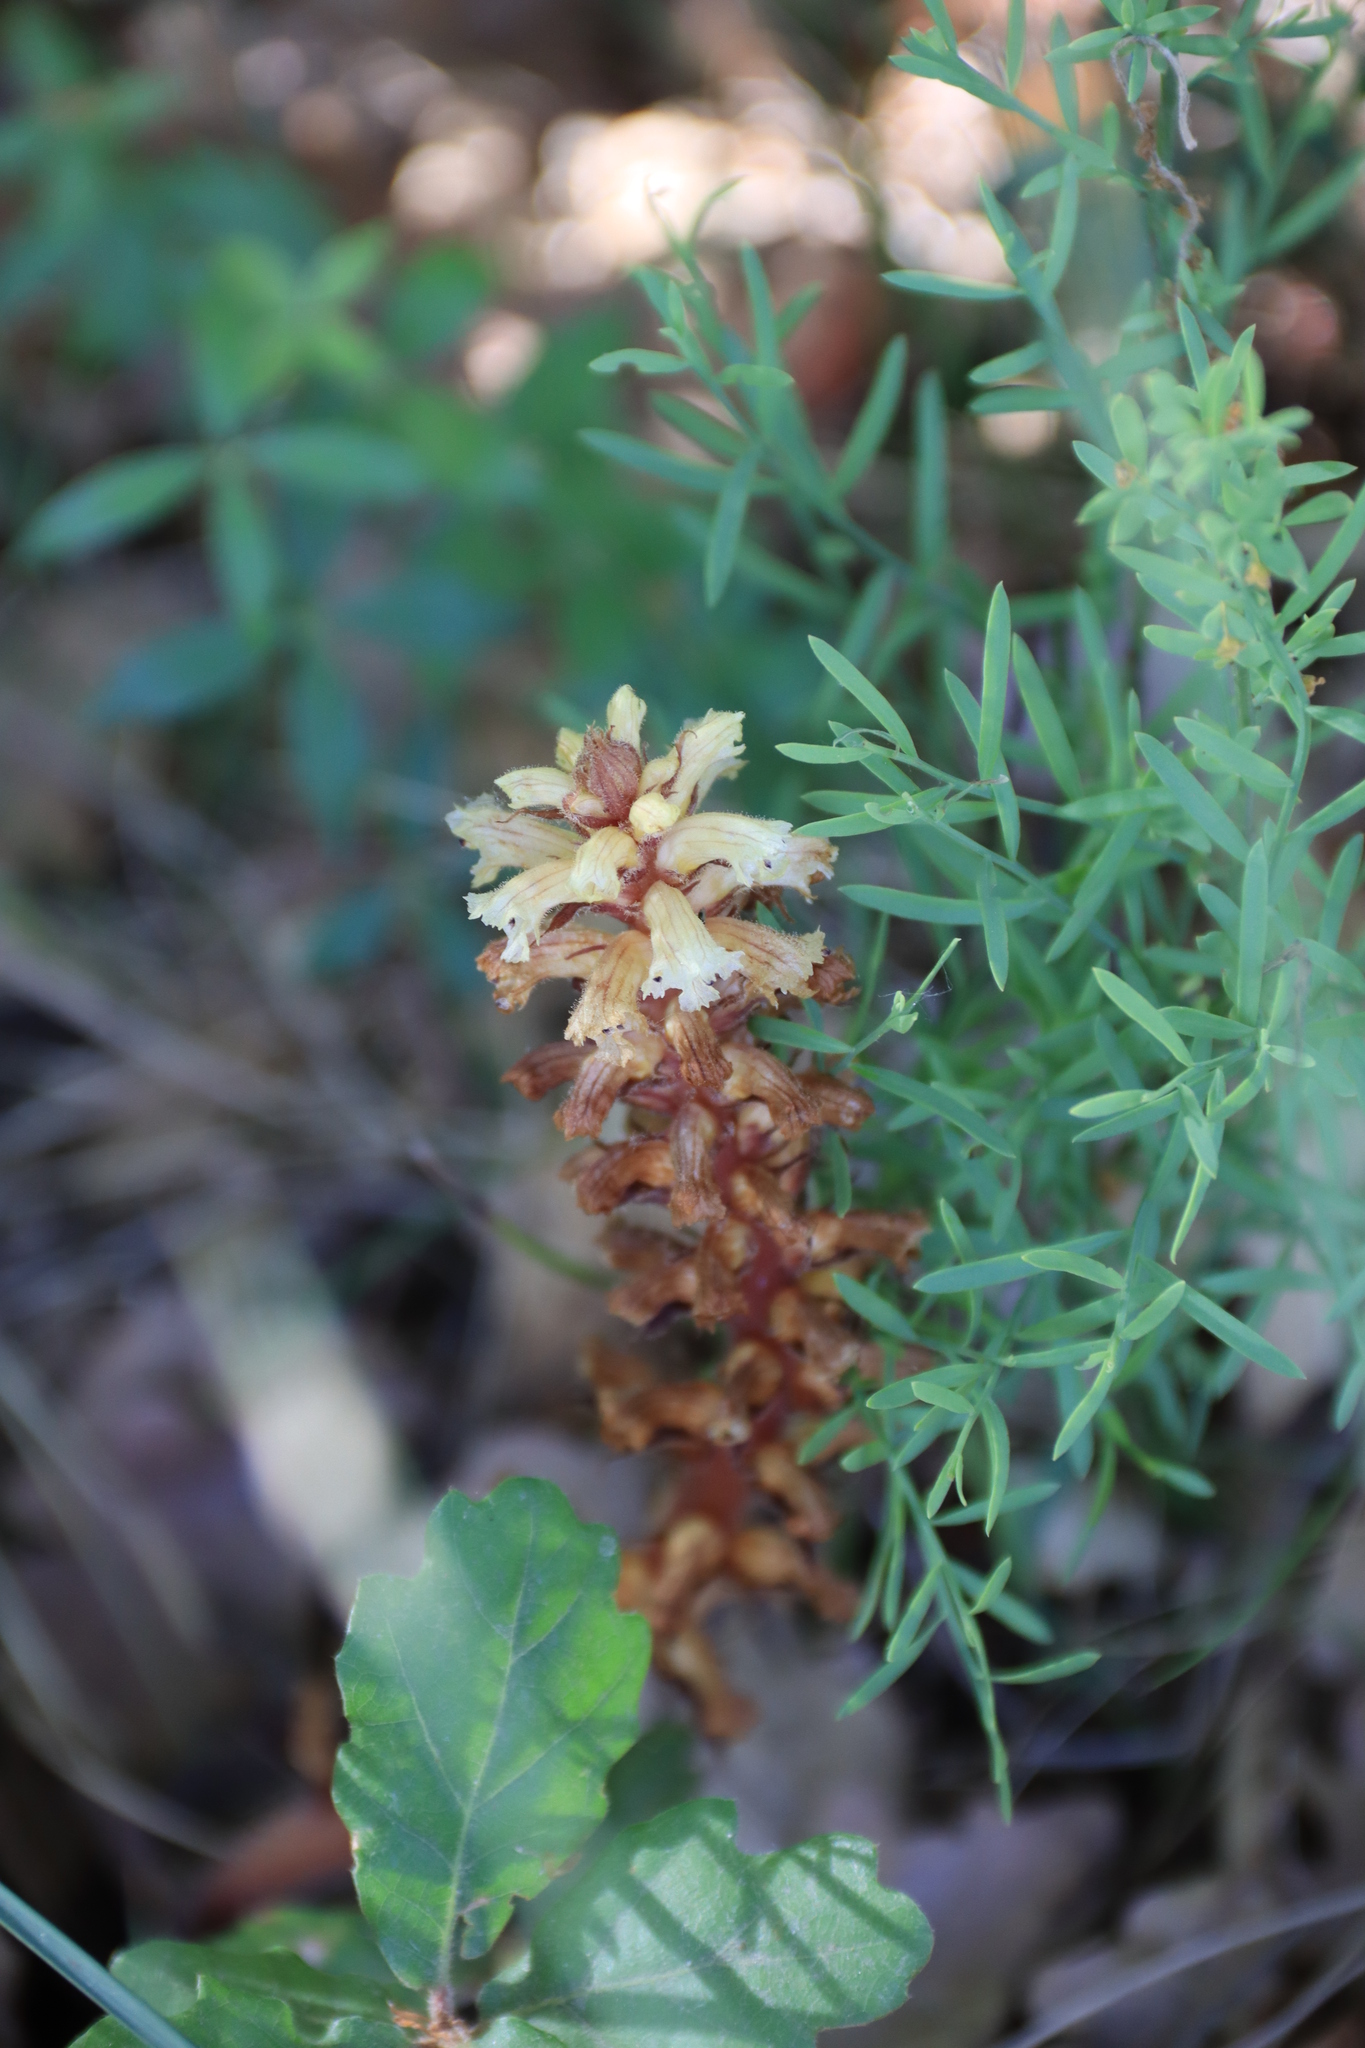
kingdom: Plantae
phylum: Tracheophyta
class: Magnoliopsida
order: Lamiales
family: Orobanchaceae
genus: Orobanche
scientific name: Orobanche hederae
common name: Ivy broomrape
